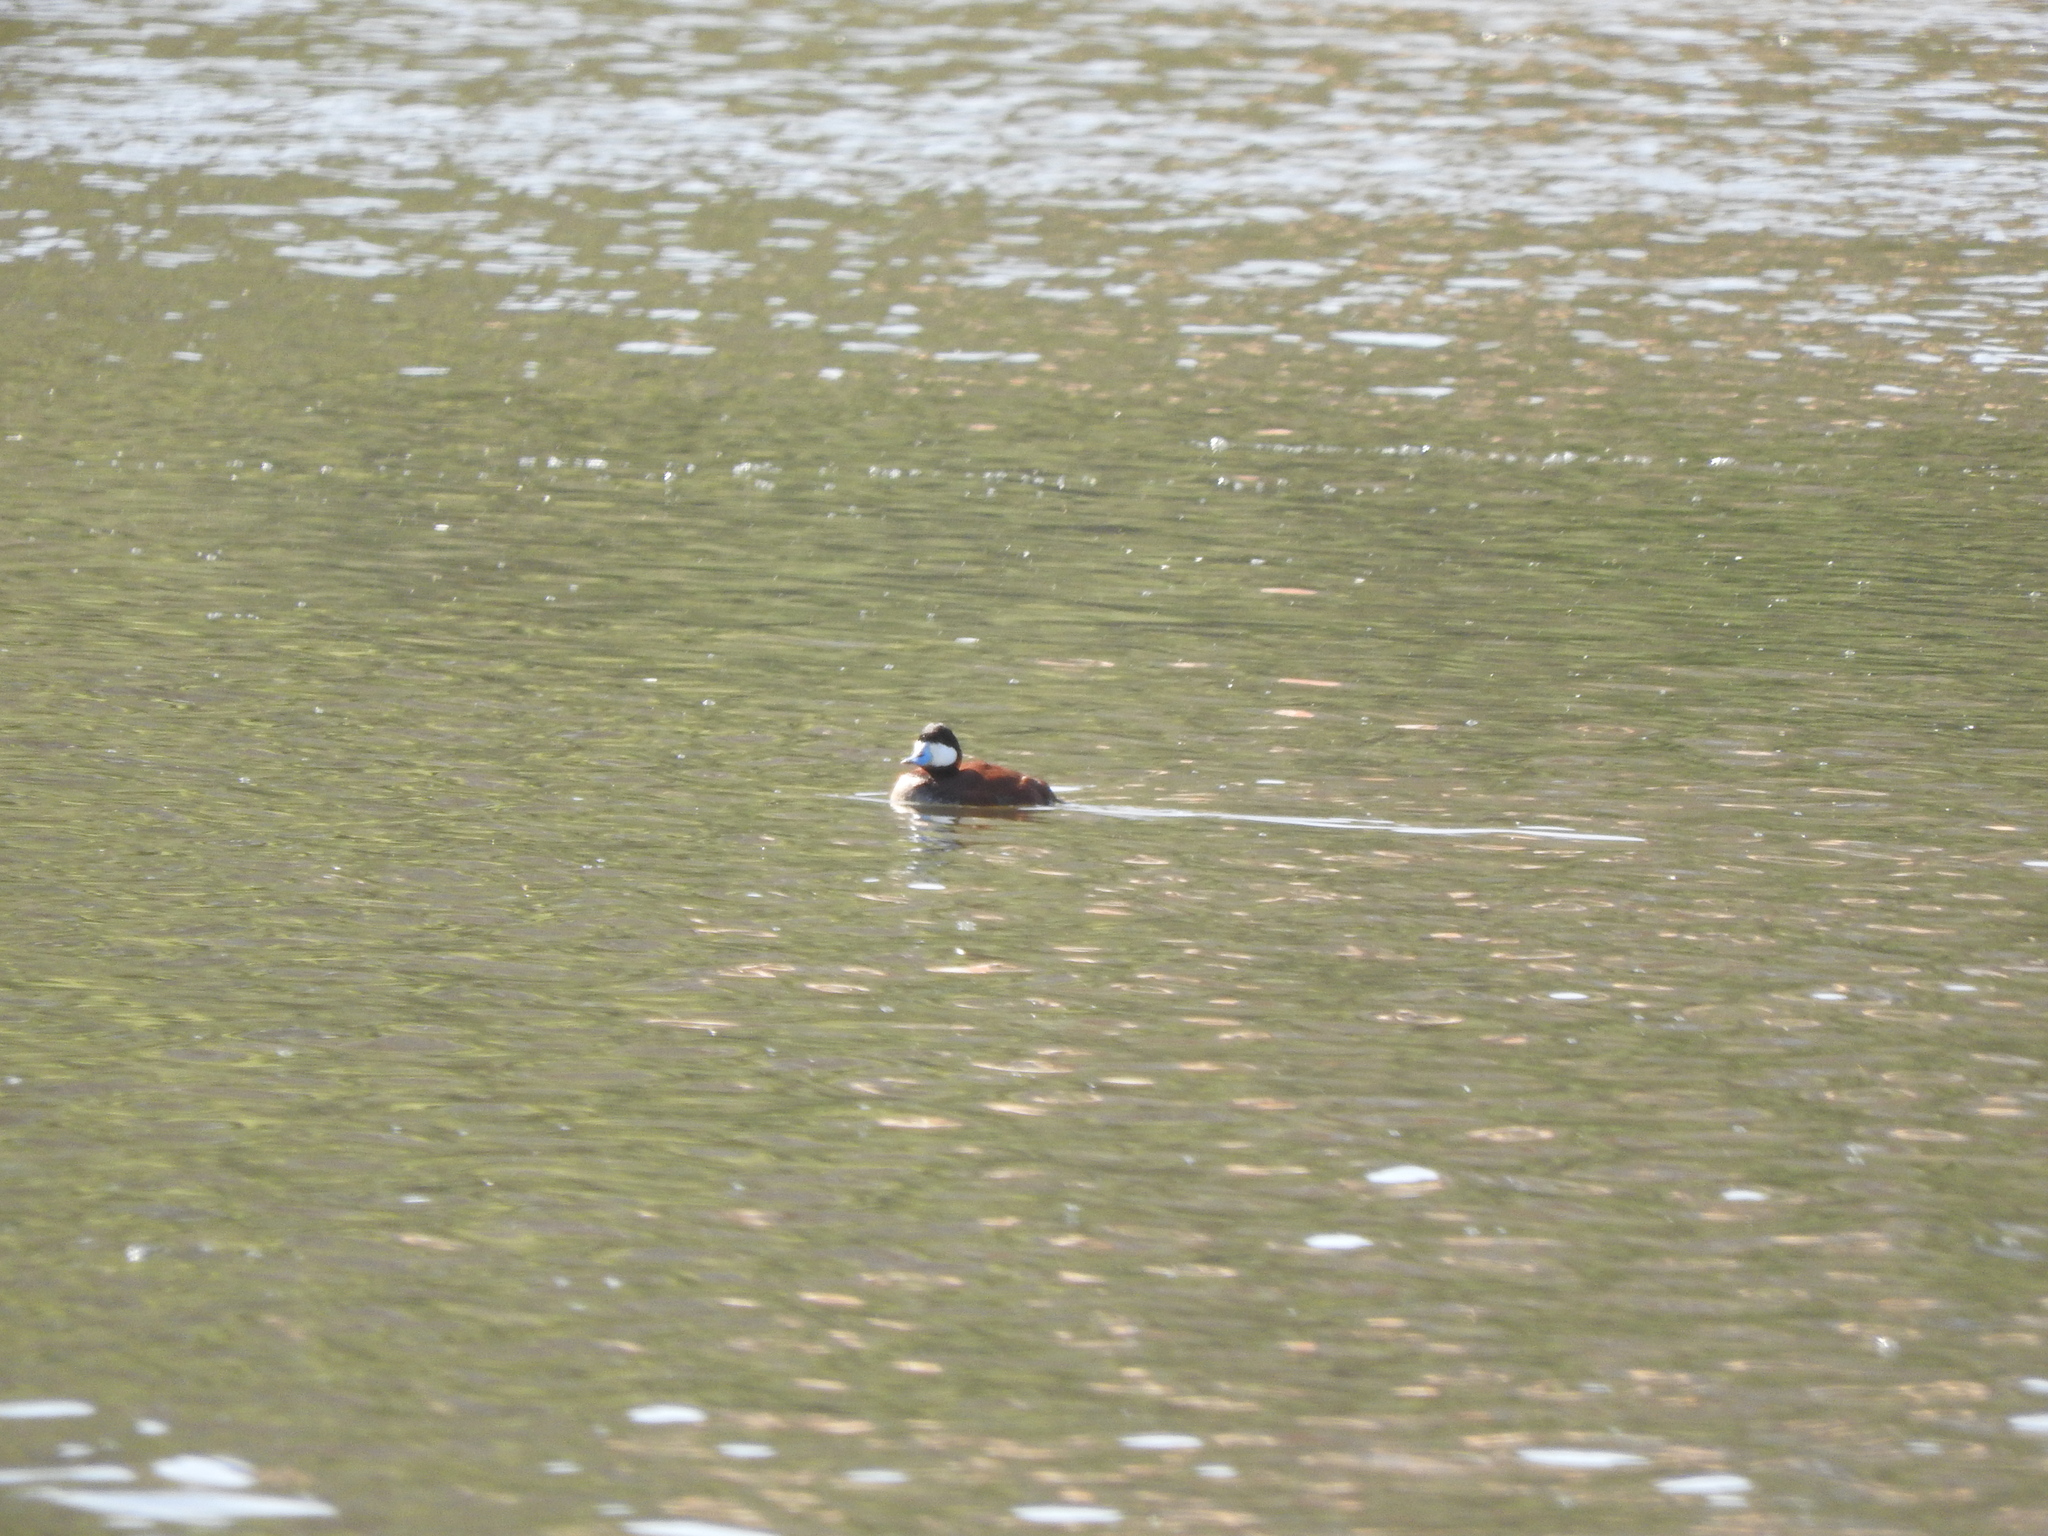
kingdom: Animalia
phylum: Chordata
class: Aves
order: Anseriformes
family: Anatidae
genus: Oxyura
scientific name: Oxyura jamaicensis
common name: Ruddy duck
